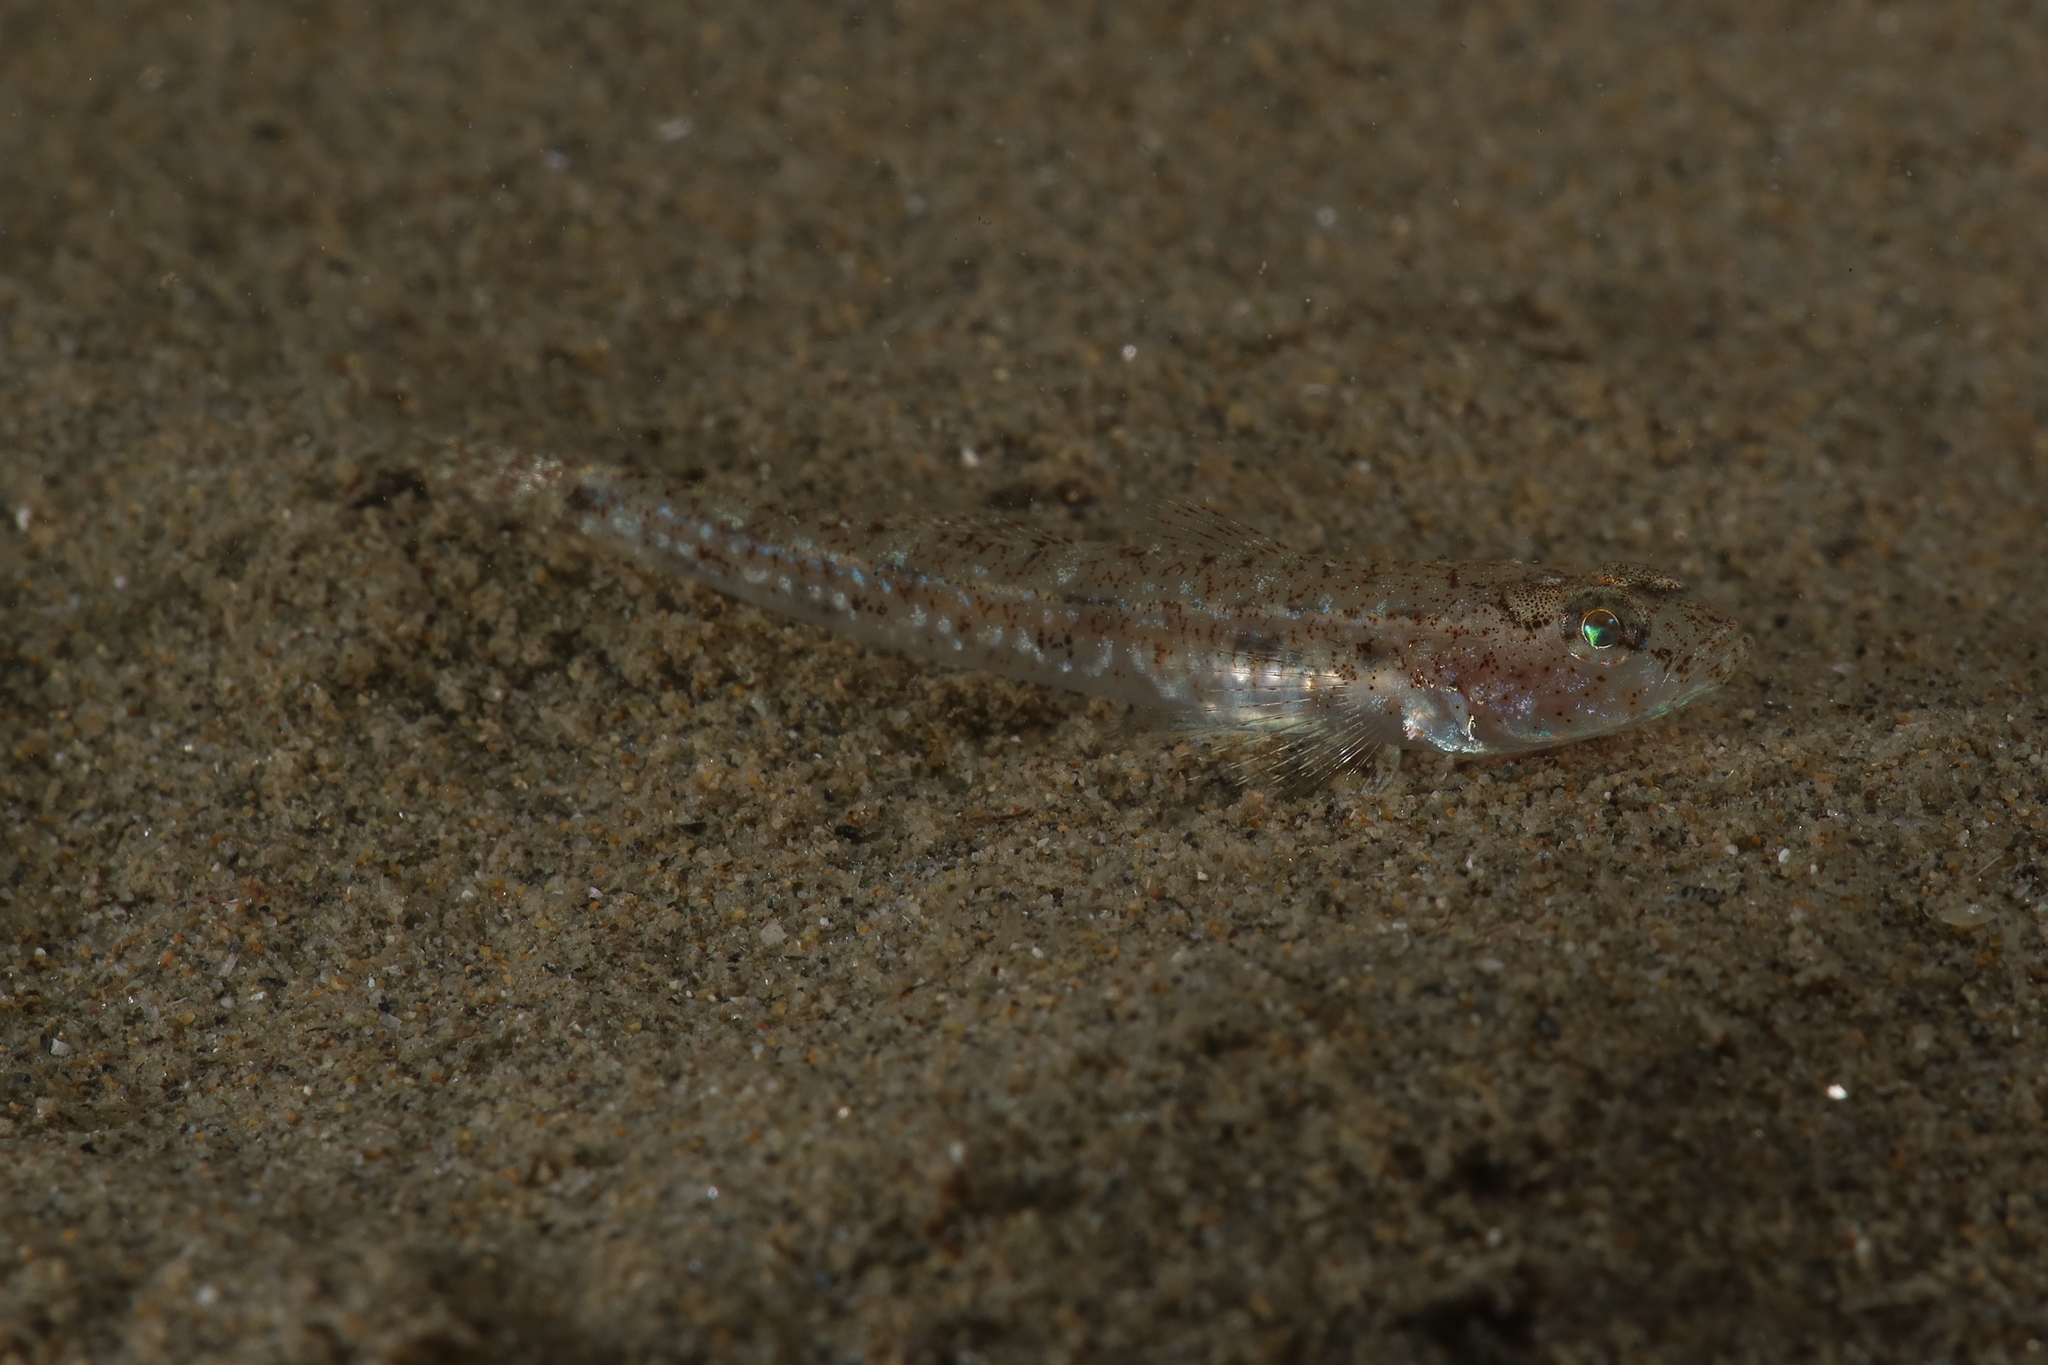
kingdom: Animalia
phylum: Chordata
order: Perciformes
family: Gobiidae
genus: Pomatoschistus
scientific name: Pomatoschistus marmoratus
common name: Marbled goby
